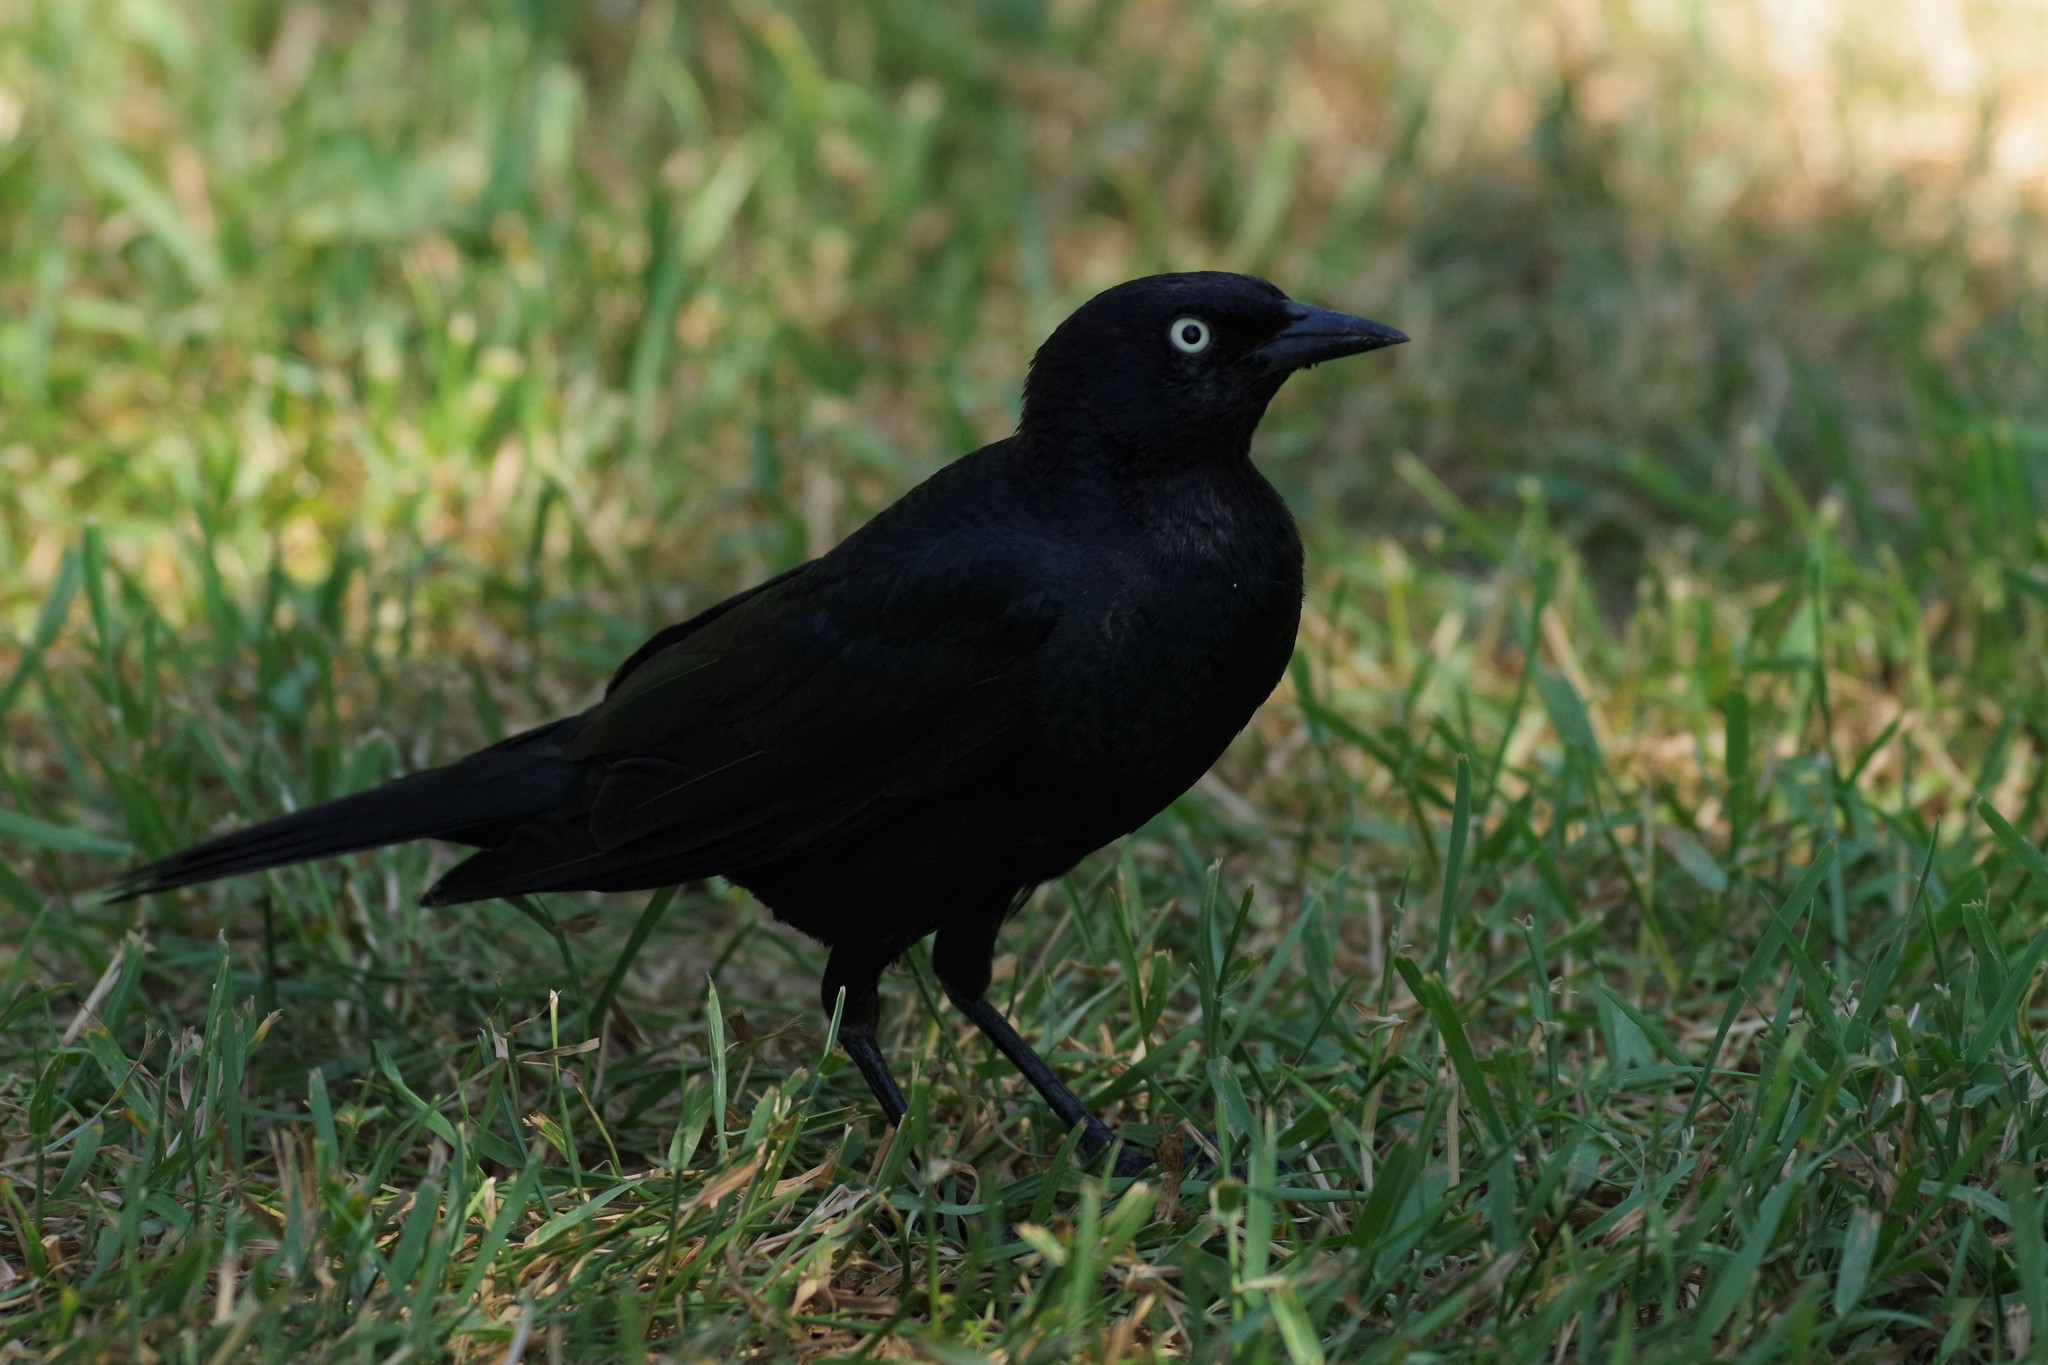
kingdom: Animalia
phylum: Chordata
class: Aves
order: Passeriformes
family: Icteridae
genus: Euphagus
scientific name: Euphagus cyanocephalus
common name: Brewer's blackbird
